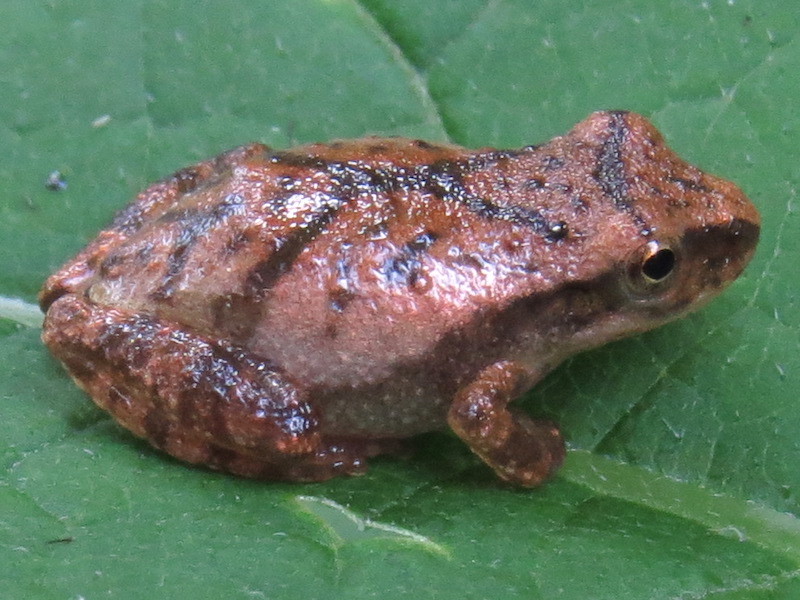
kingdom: Animalia
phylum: Chordata
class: Amphibia
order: Anura
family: Hylidae
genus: Pseudacris
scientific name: Pseudacris crucifer
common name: Spring peeper
